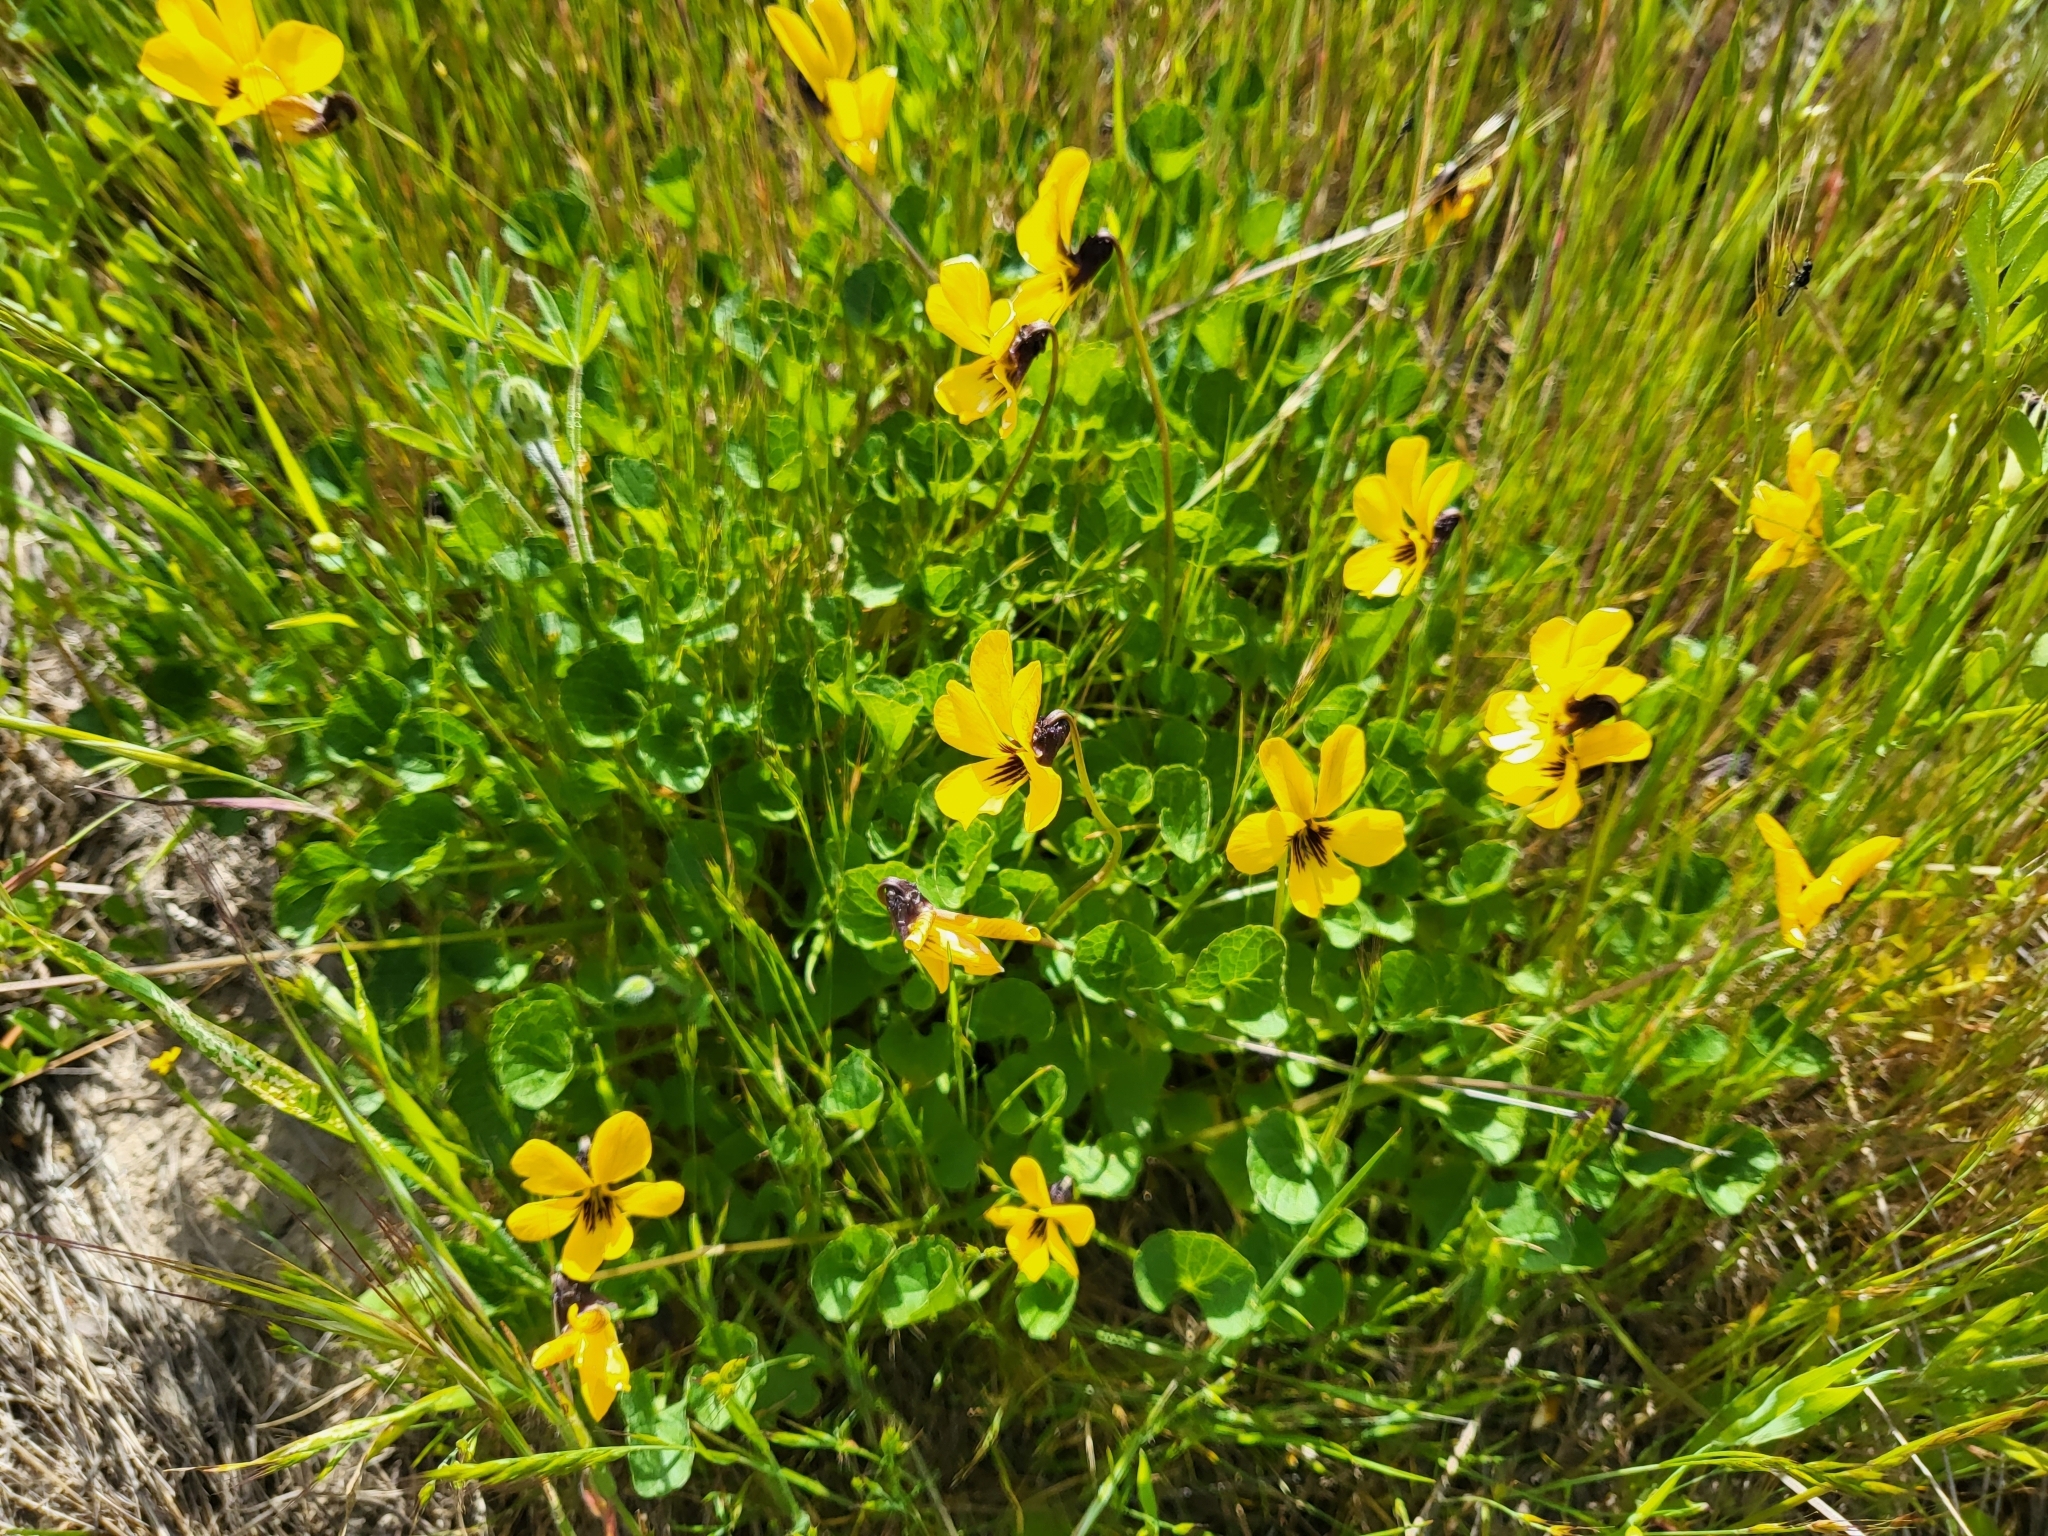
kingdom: Plantae
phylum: Tracheophyta
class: Magnoliopsida
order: Malpighiales
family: Violaceae
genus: Viola
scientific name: Viola pedunculata
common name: California golden violet
